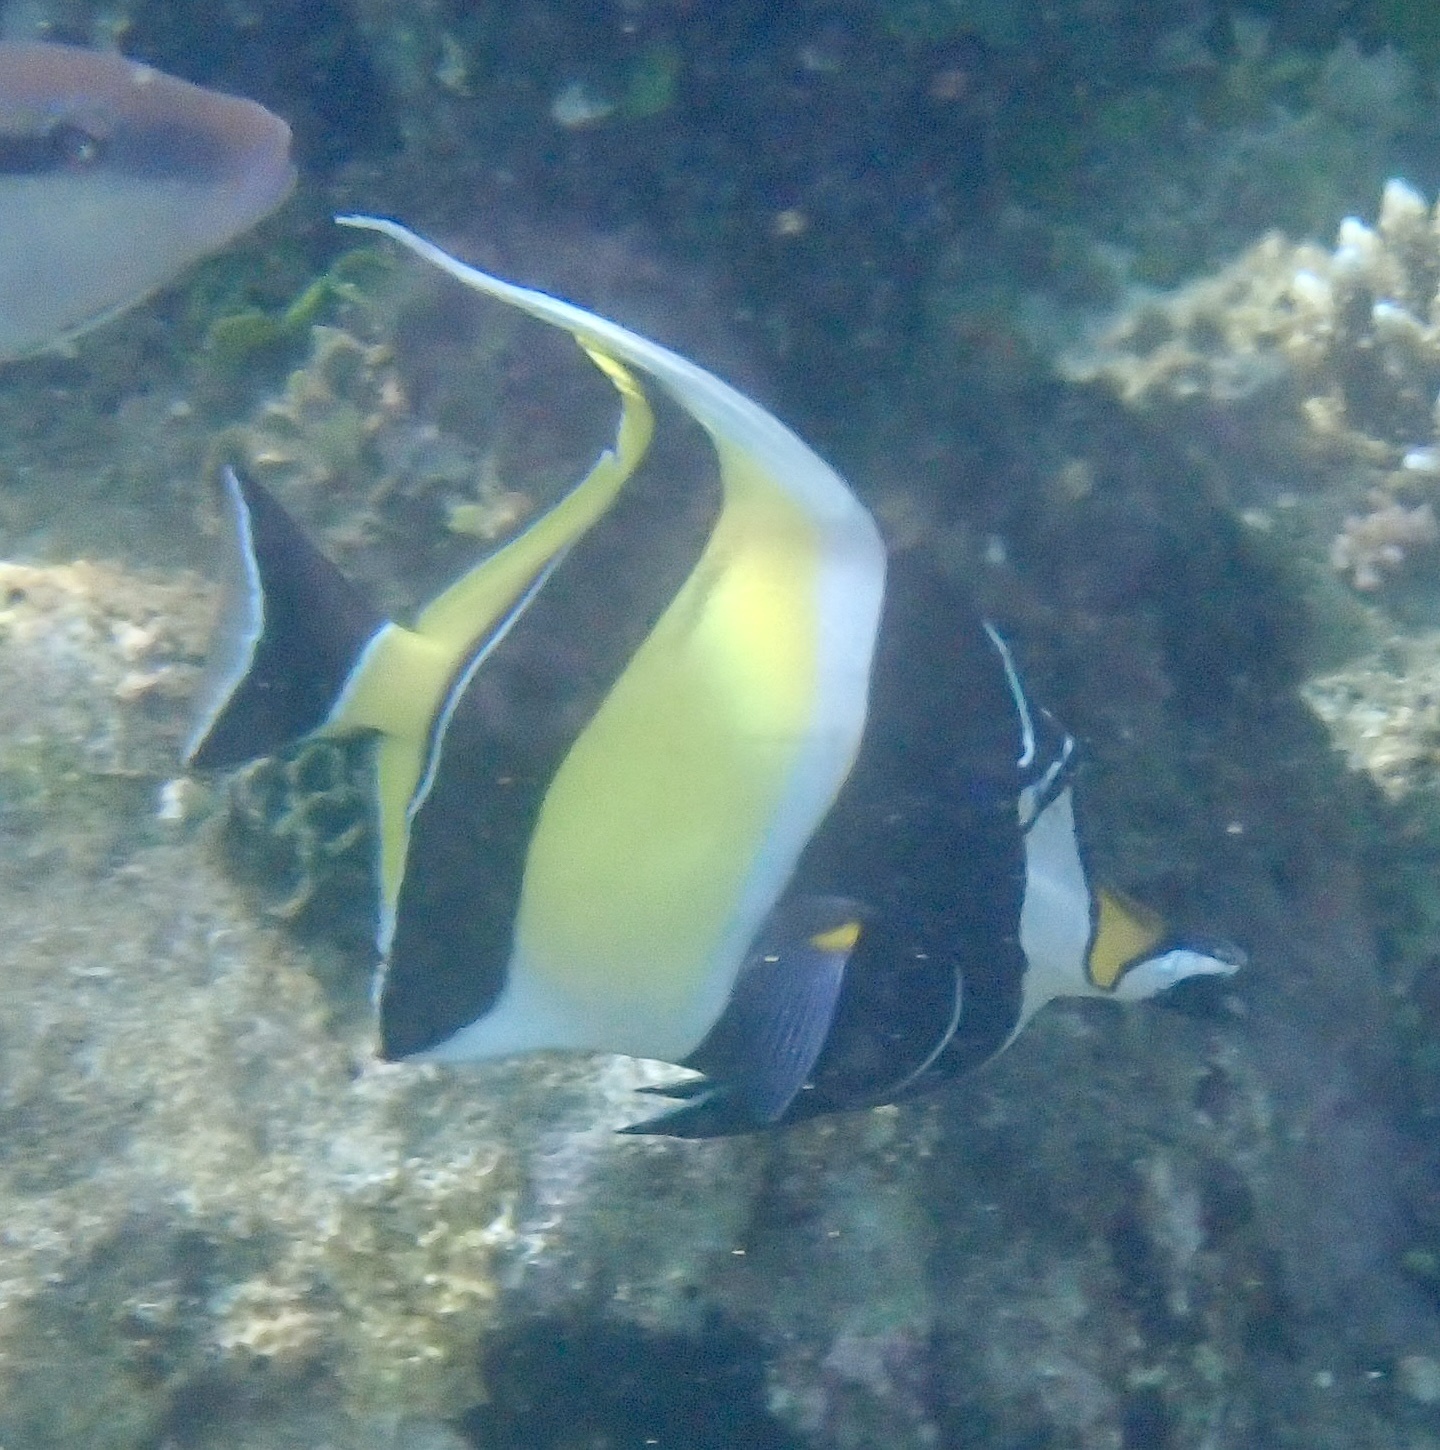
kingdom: Animalia
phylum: Chordata
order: Perciformes
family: Zanclidae
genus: Zanclus
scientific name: Zanclus cornutus
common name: Moorish idol
